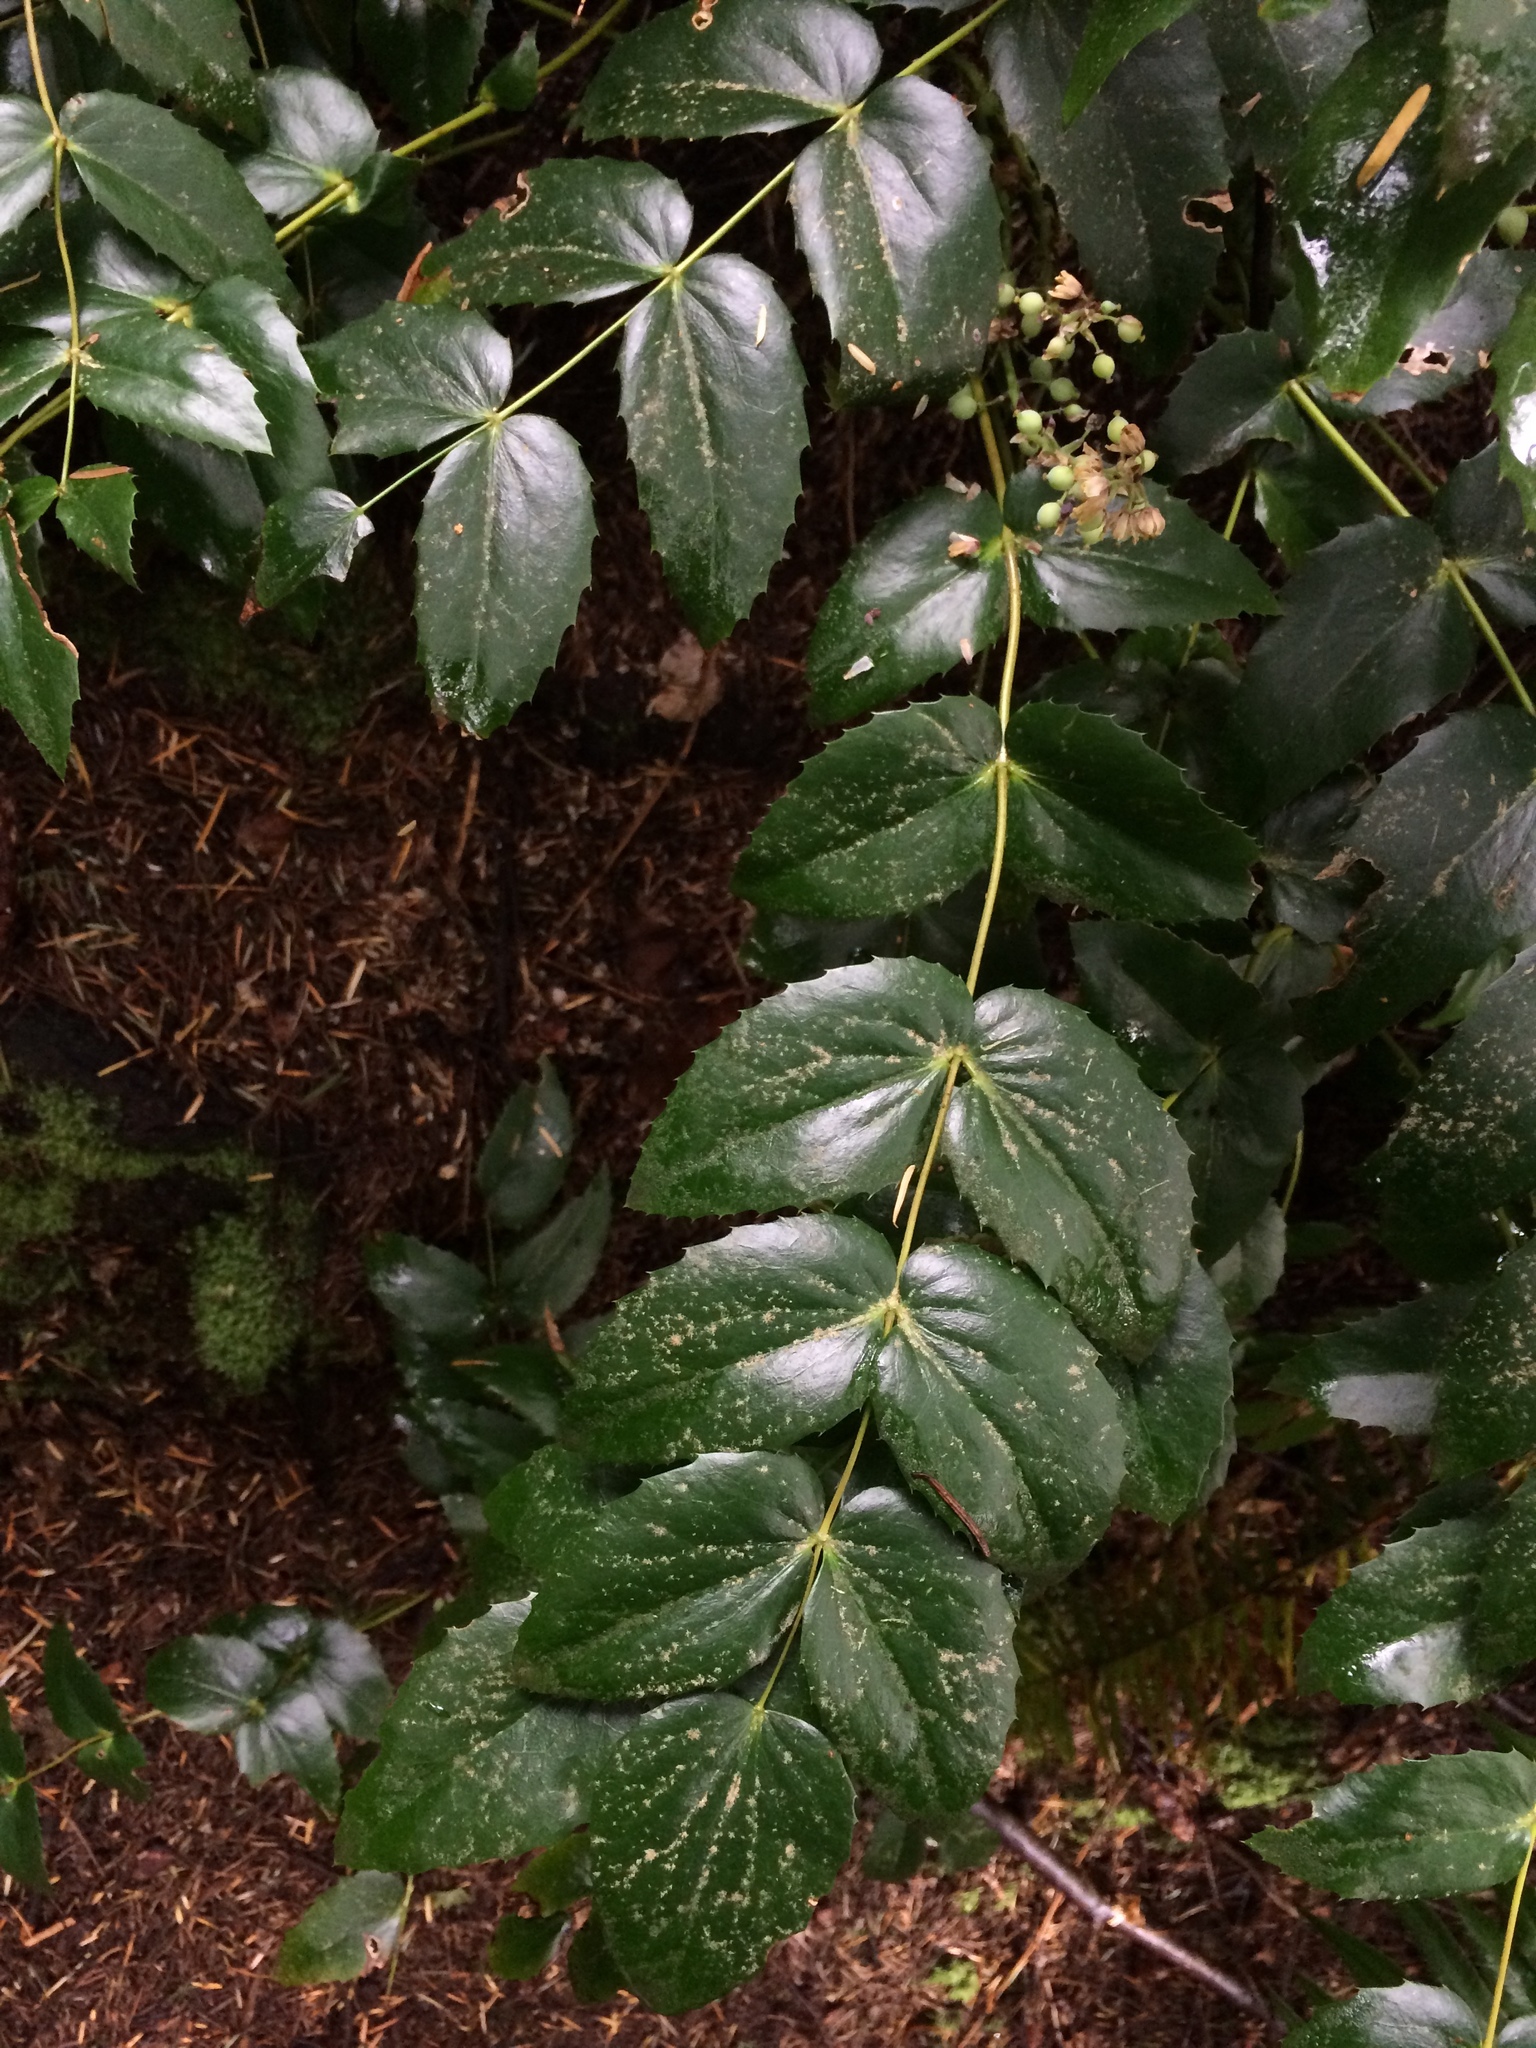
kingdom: Plantae
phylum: Tracheophyta
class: Magnoliopsida
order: Ranunculales
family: Berberidaceae
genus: Mahonia
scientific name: Mahonia nervosa
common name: Cascade oregon-grape
